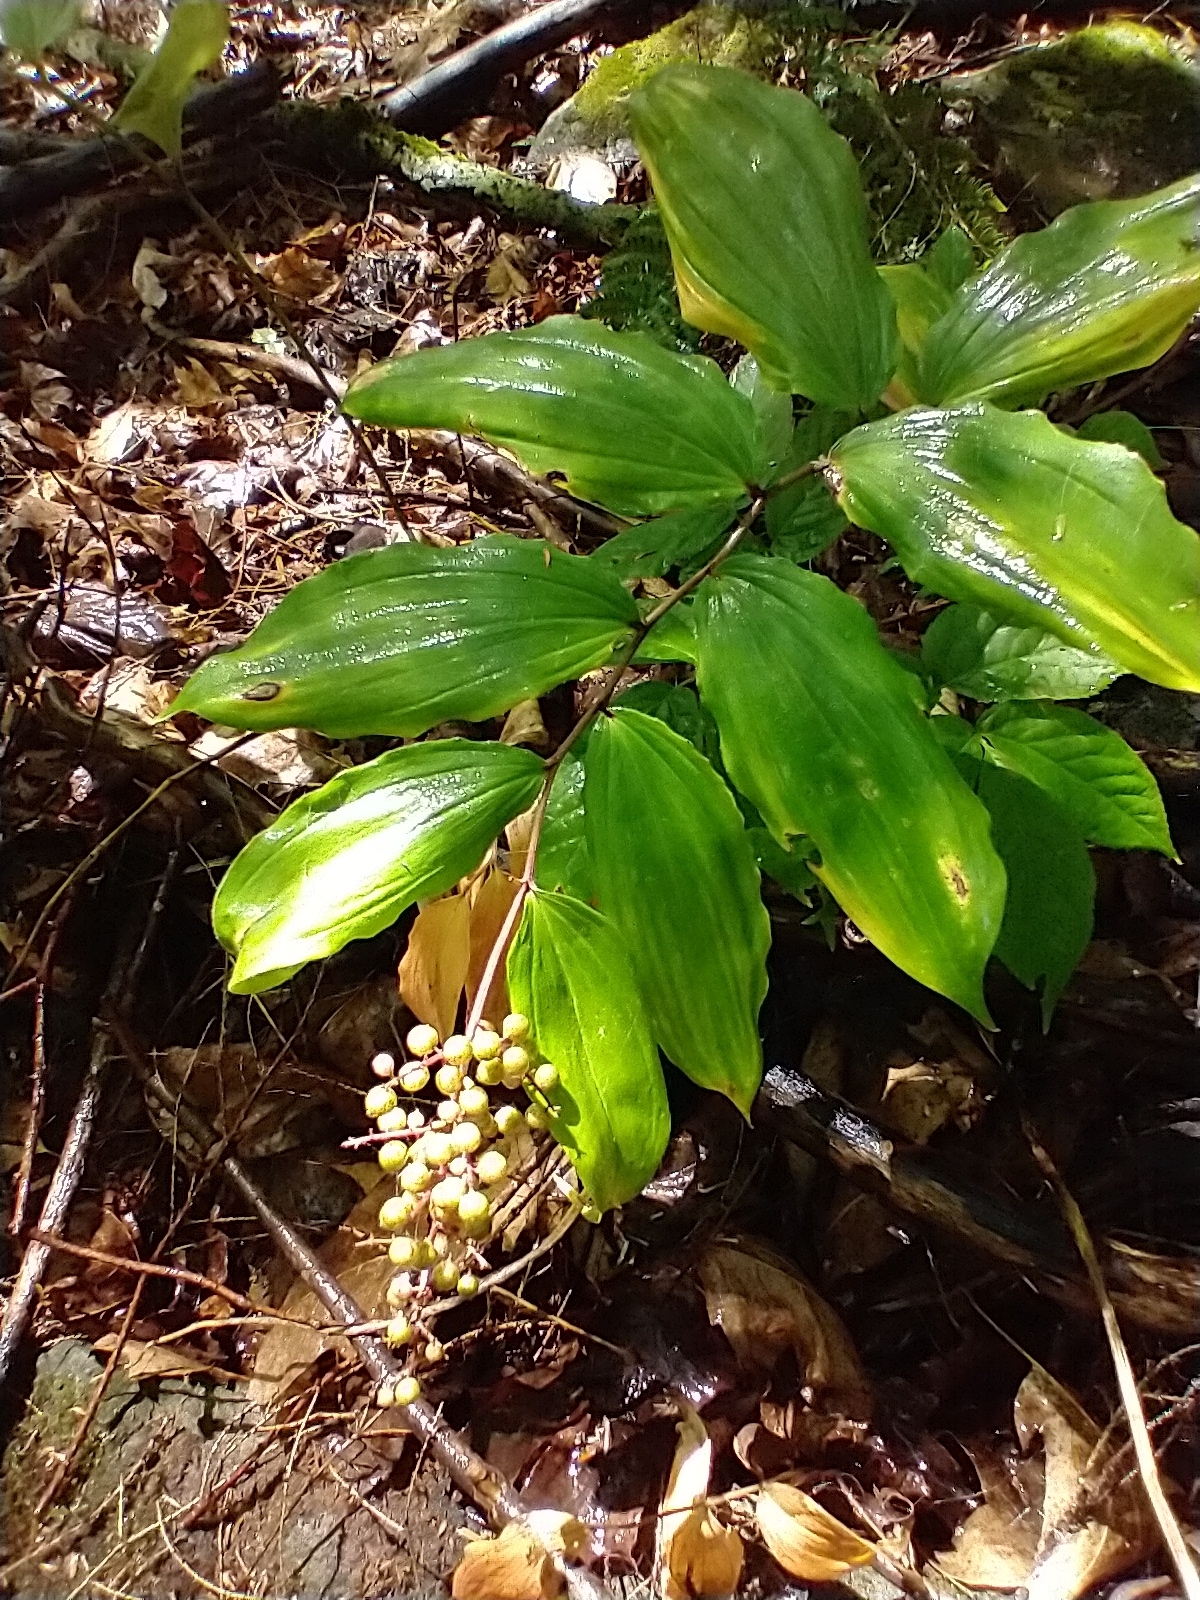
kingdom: Plantae
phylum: Tracheophyta
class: Liliopsida
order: Asparagales
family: Asparagaceae
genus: Maianthemum
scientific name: Maianthemum racemosum
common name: False spikenard
